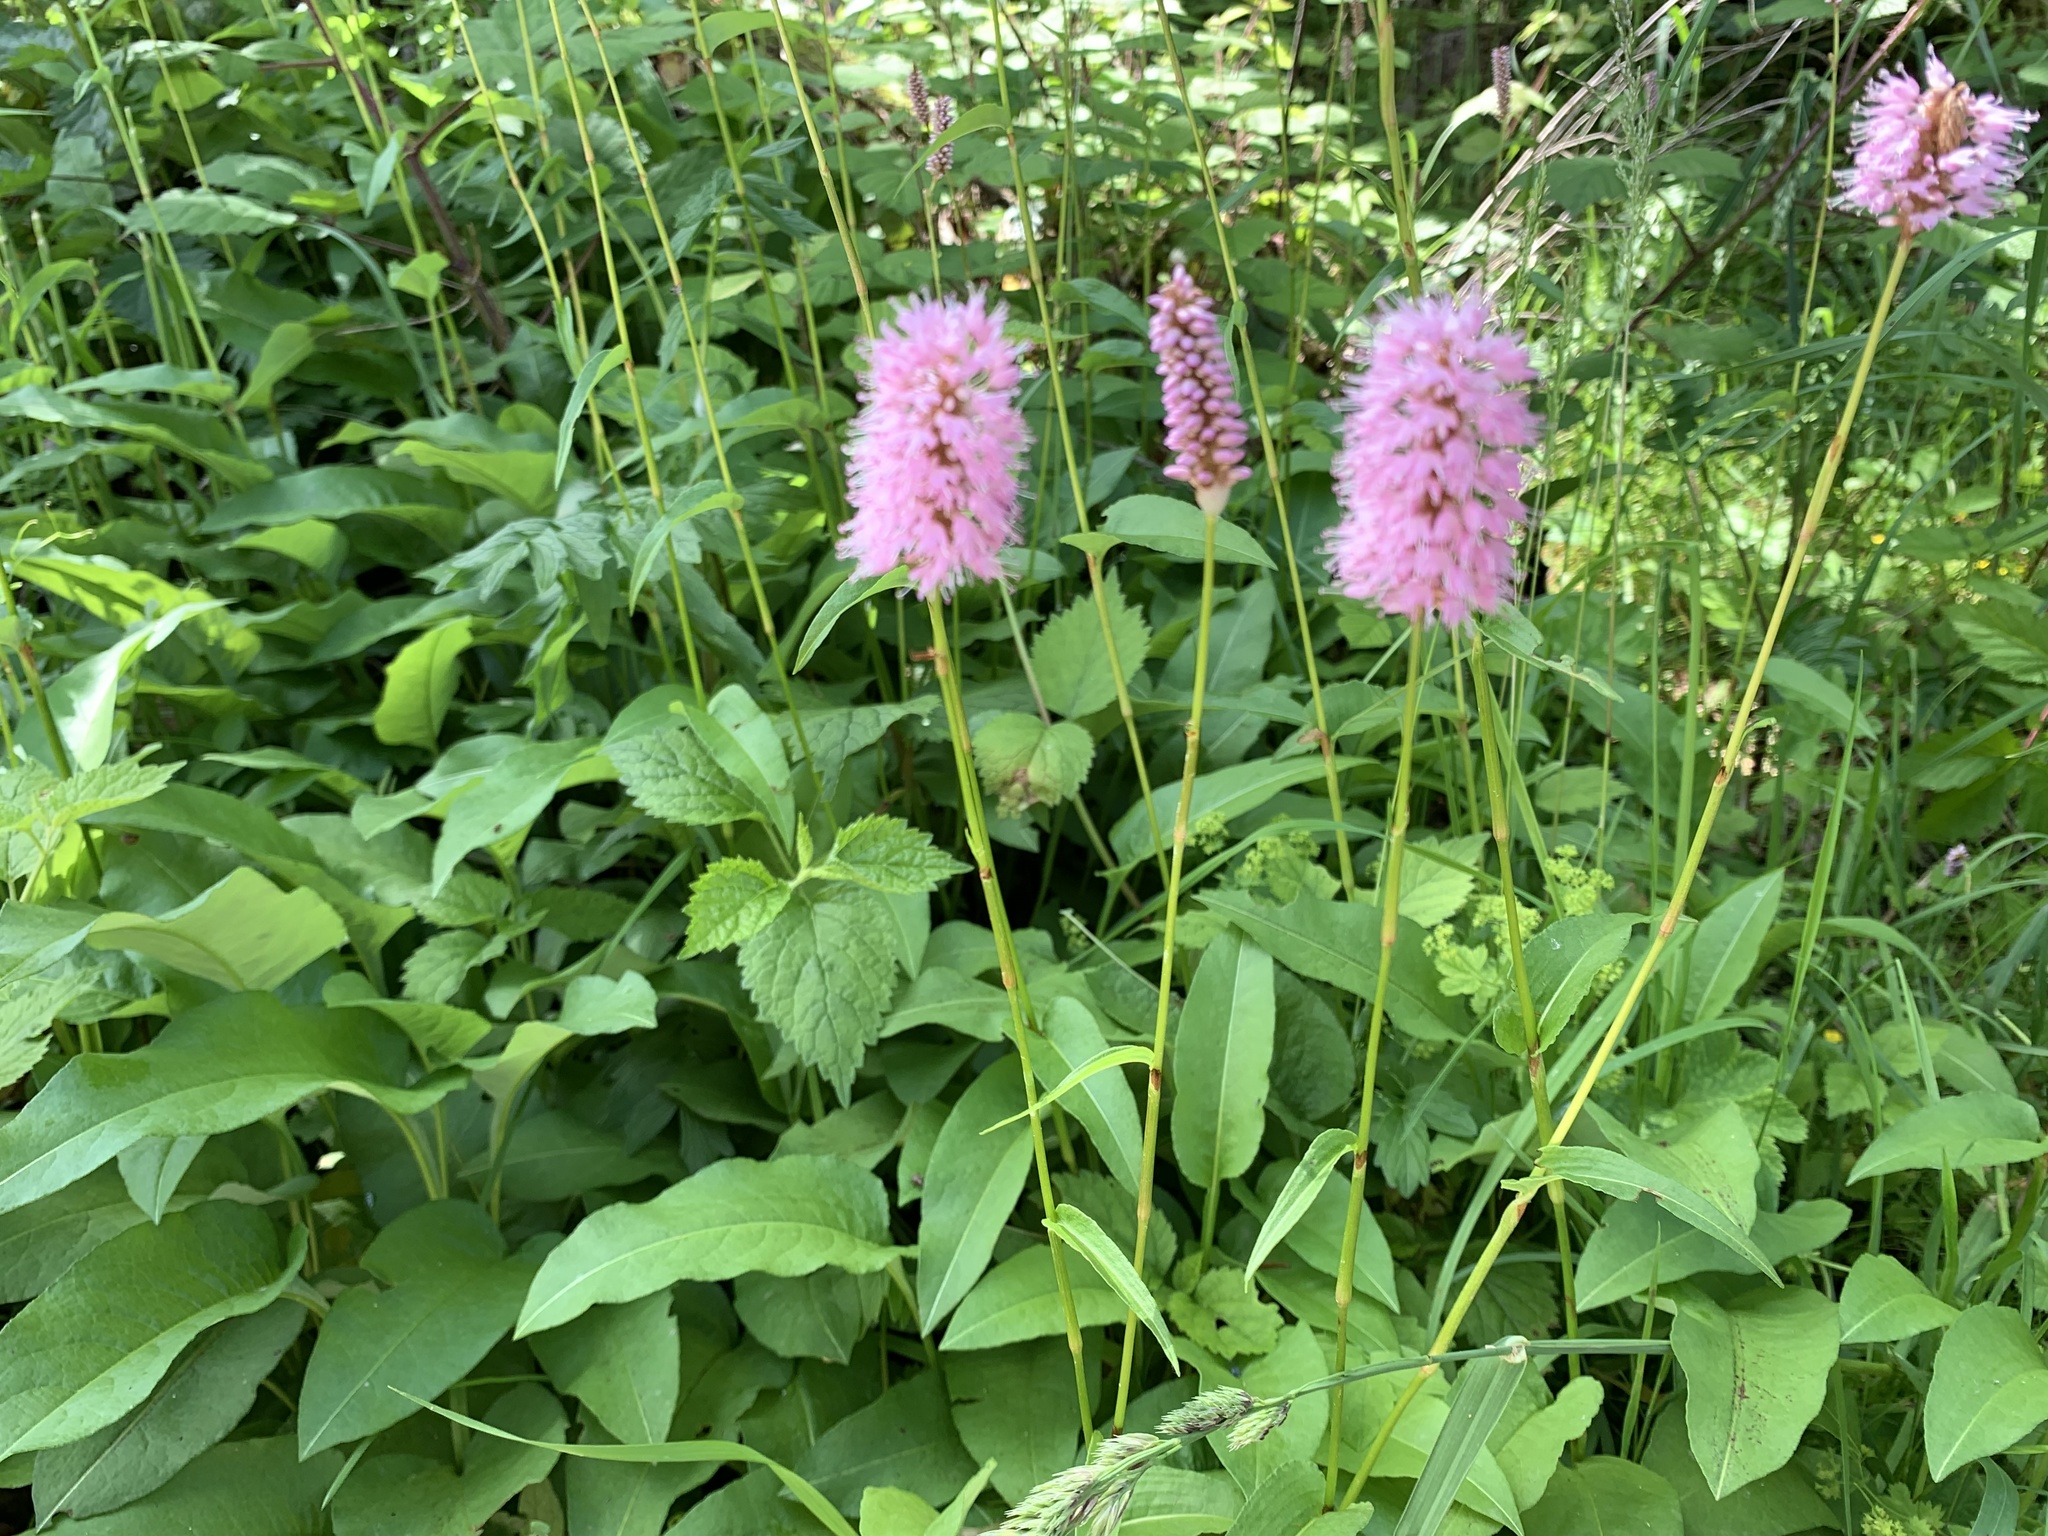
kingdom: Plantae
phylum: Tracheophyta
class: Magnoliopsida
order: Caryophyllales
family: Polygonaceae
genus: Bistorta
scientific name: Bistorta officinalis
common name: Common bistort
